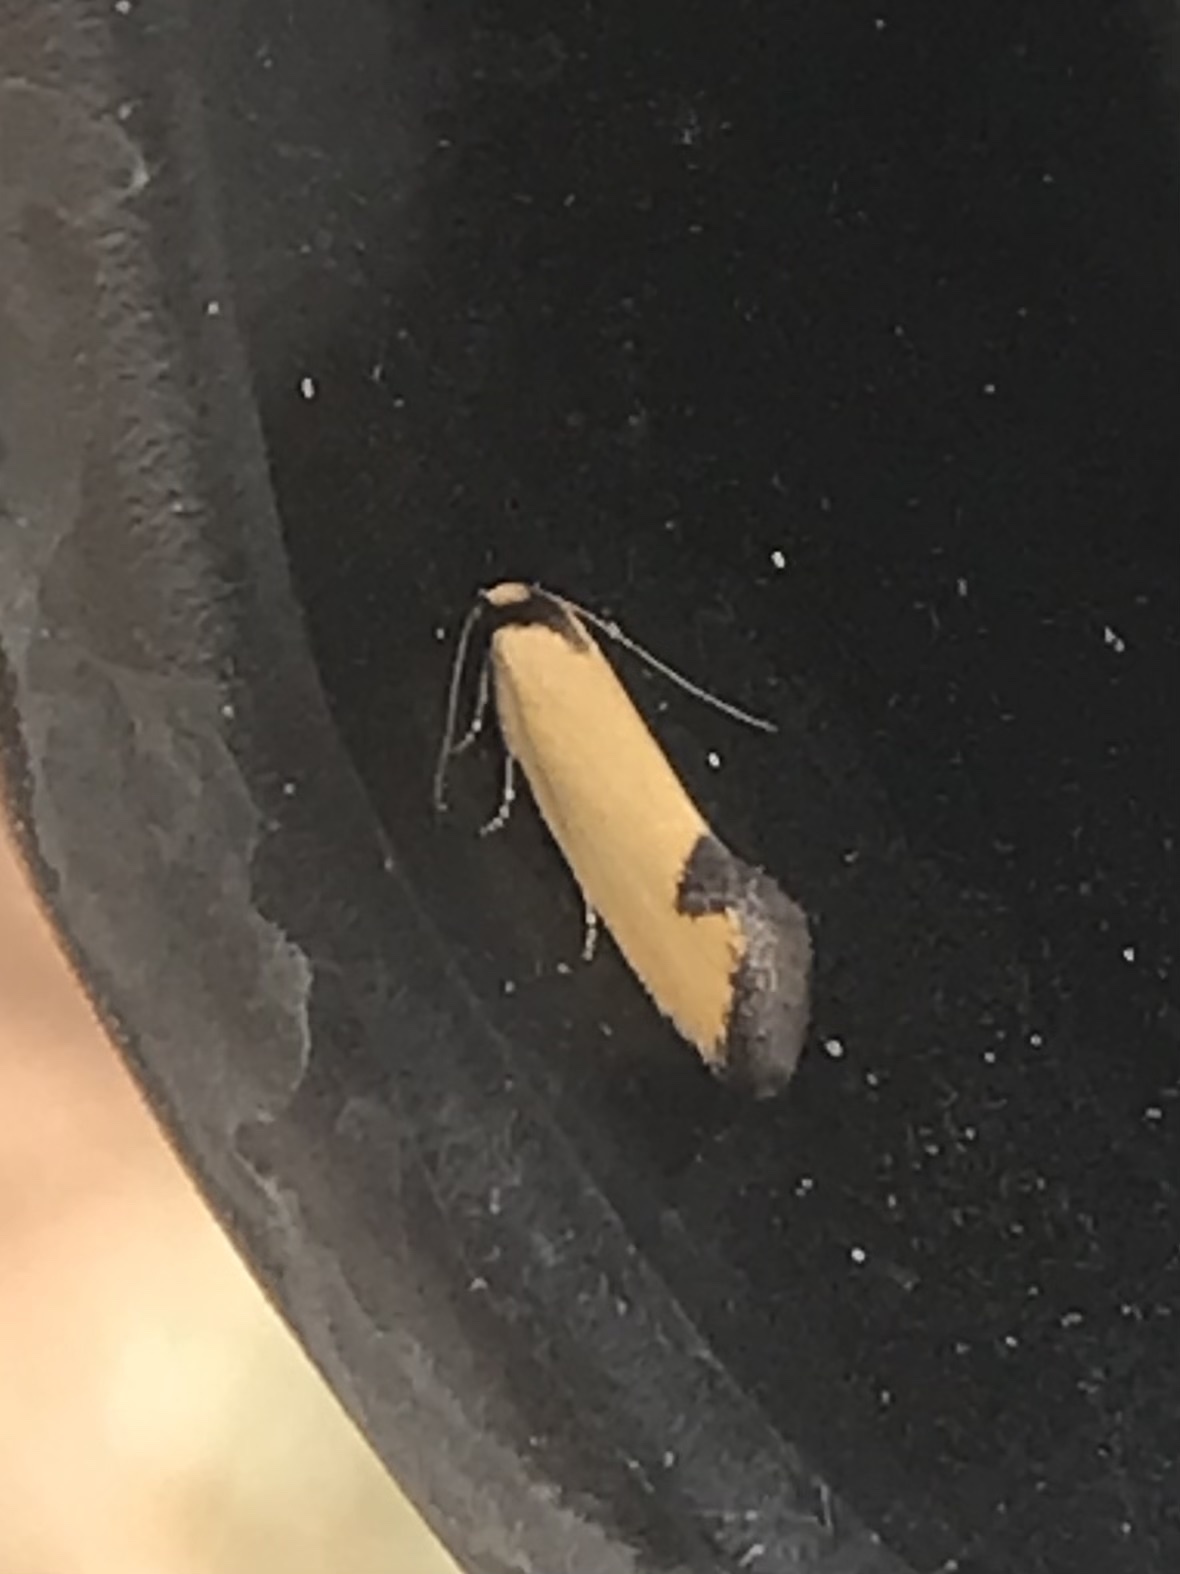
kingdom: Animalia
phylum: Arthropoda
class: Insecta
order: Lepidoptera
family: Oecophoridae
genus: Microbela
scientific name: Microbela epicona
